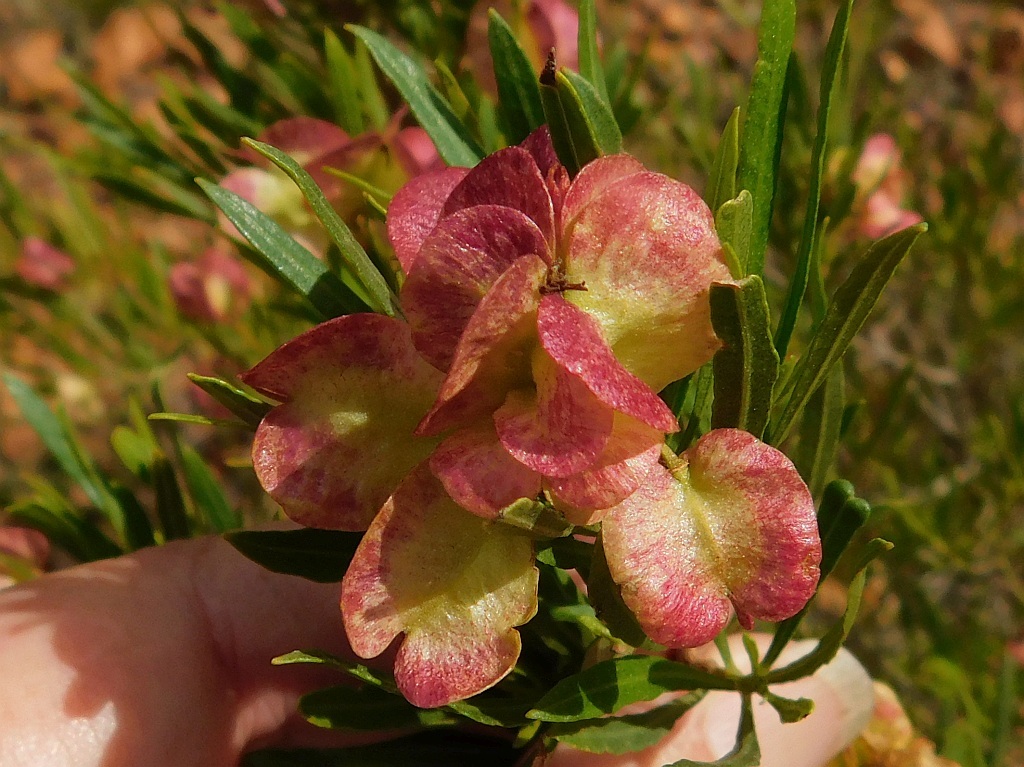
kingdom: Plantae
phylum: Tracheophyta
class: Magnoliopsida
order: Sapindales
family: Sapindaceae
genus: Dodonaea
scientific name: Dodonaea viscosa
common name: Hopbush
